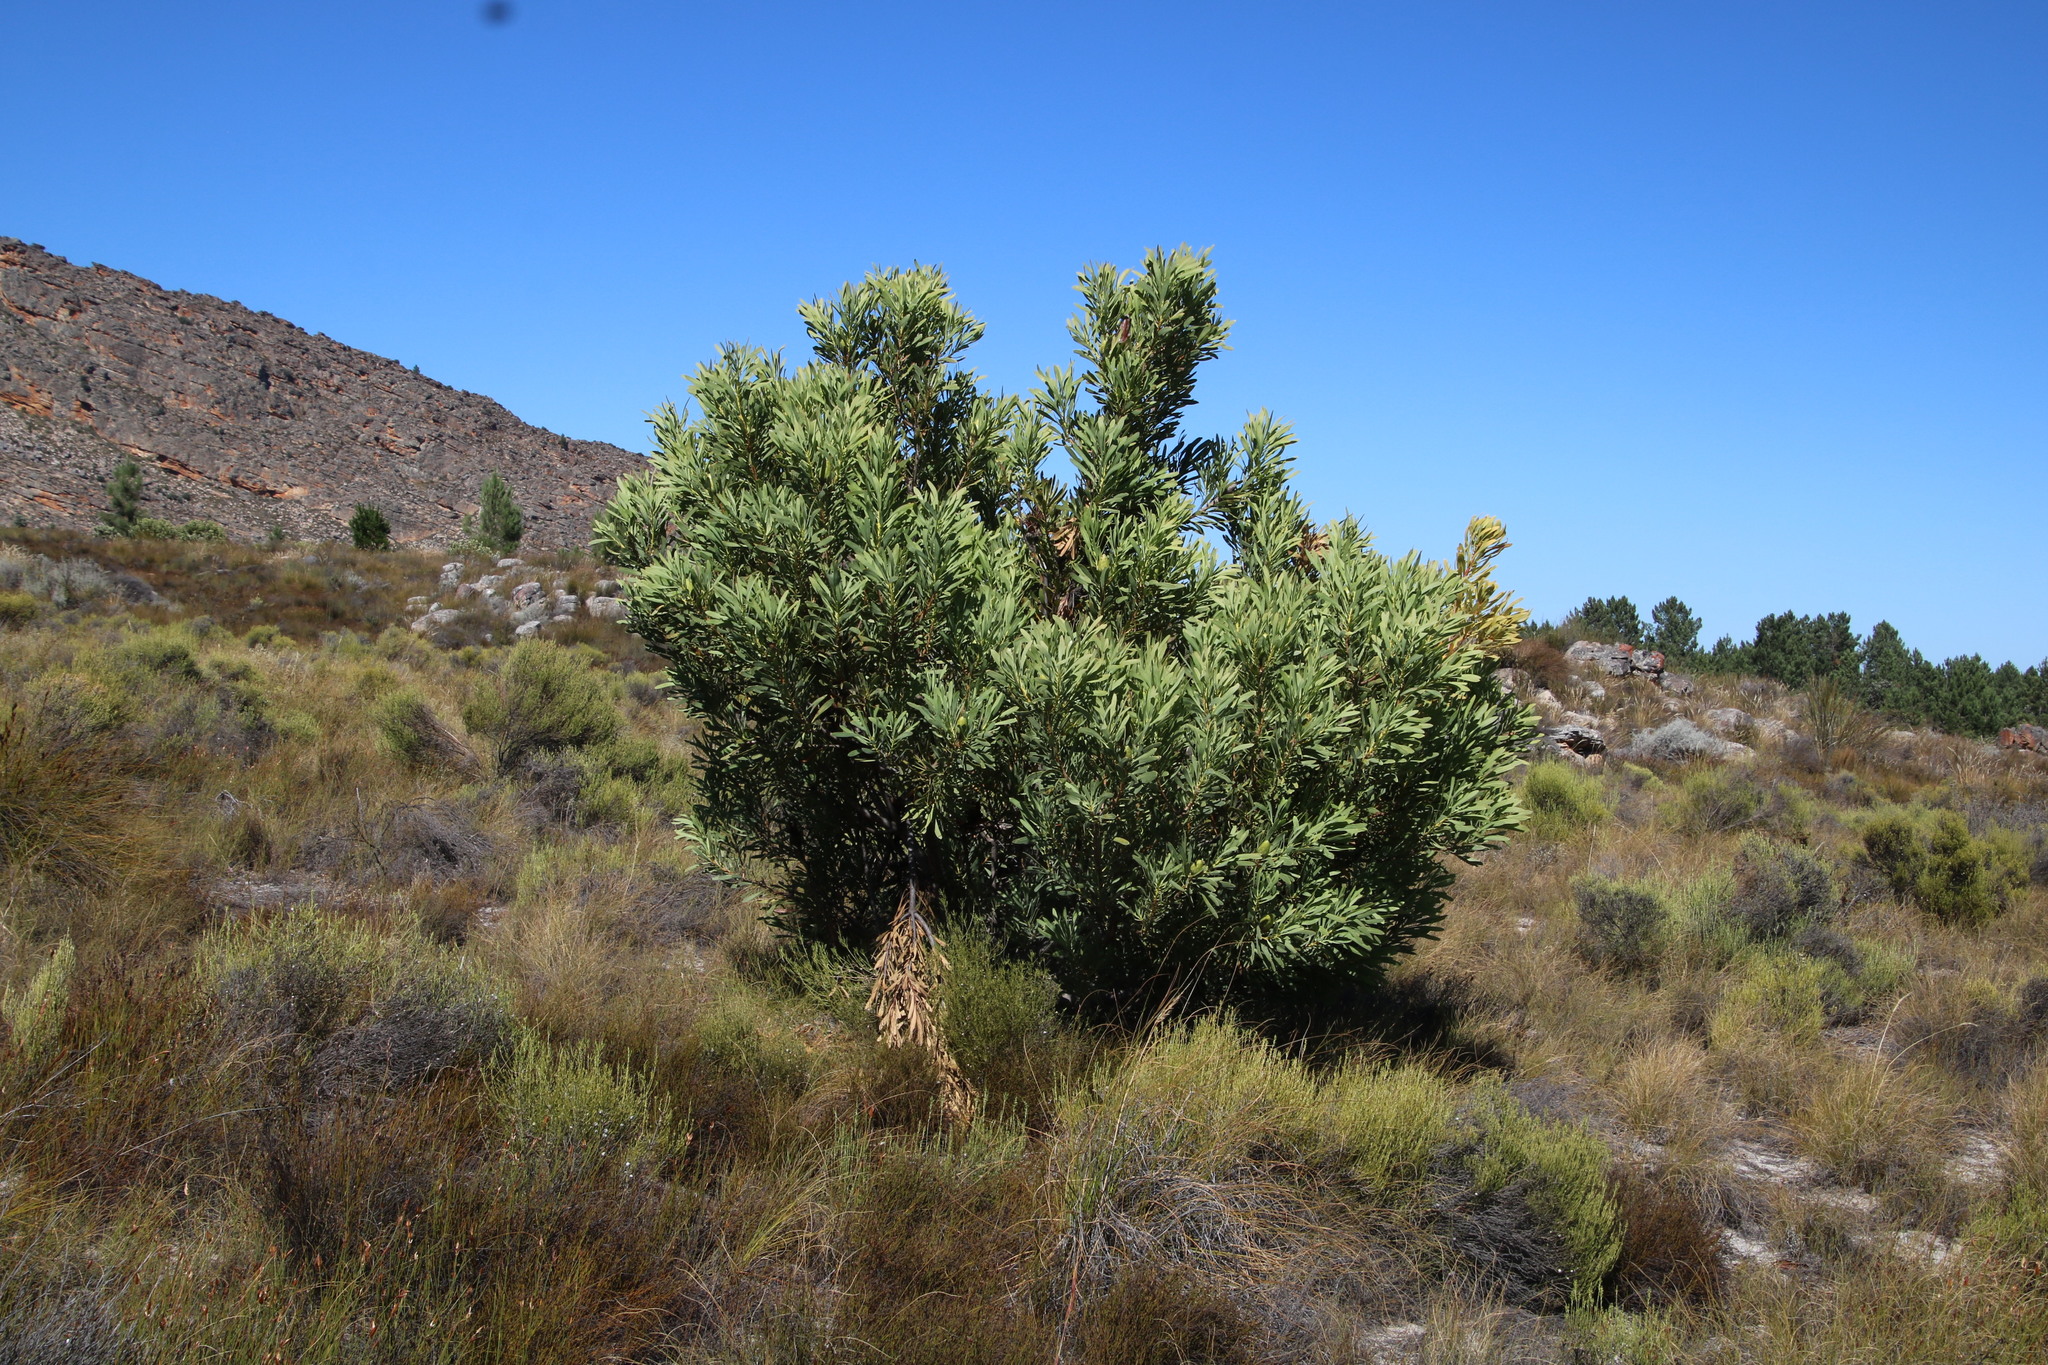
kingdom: Plantae
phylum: Tracheophyta
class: Magnoliopsida
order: Proteales
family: Proteaceae
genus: Protea
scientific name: Protea repens
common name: Sugarbush
